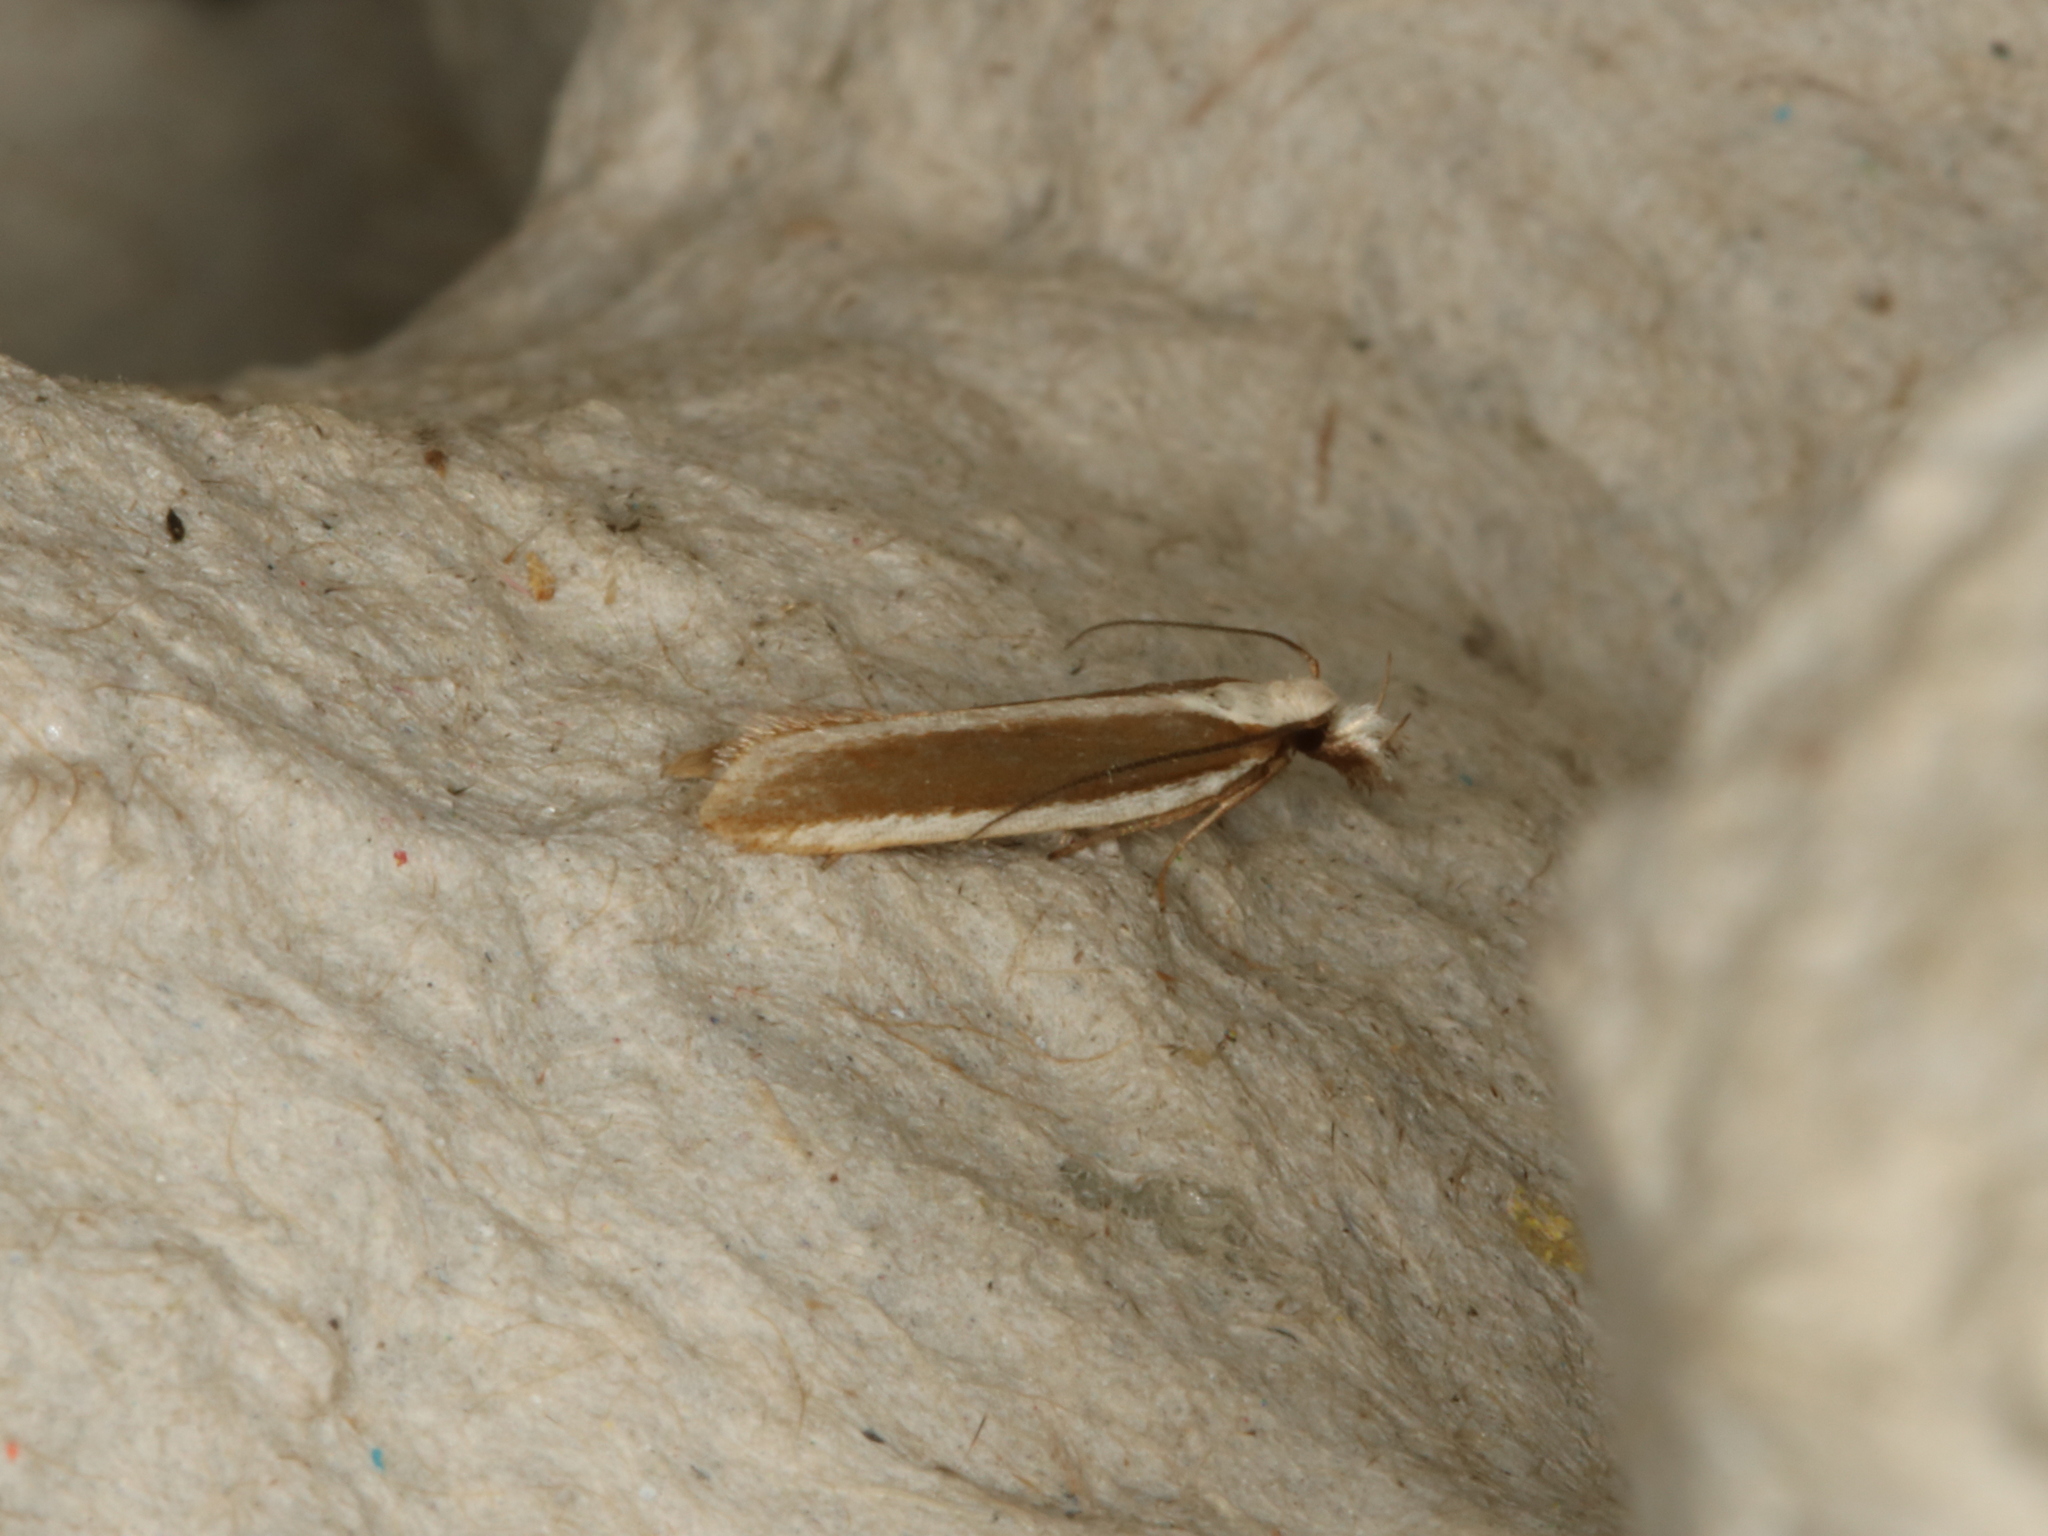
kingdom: Animalia
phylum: Arthropoda
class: Insecta
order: Lepidoptera
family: Gelechiidae
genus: Dichomeris
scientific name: Dichomeris marginella
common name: Juniper webworm
